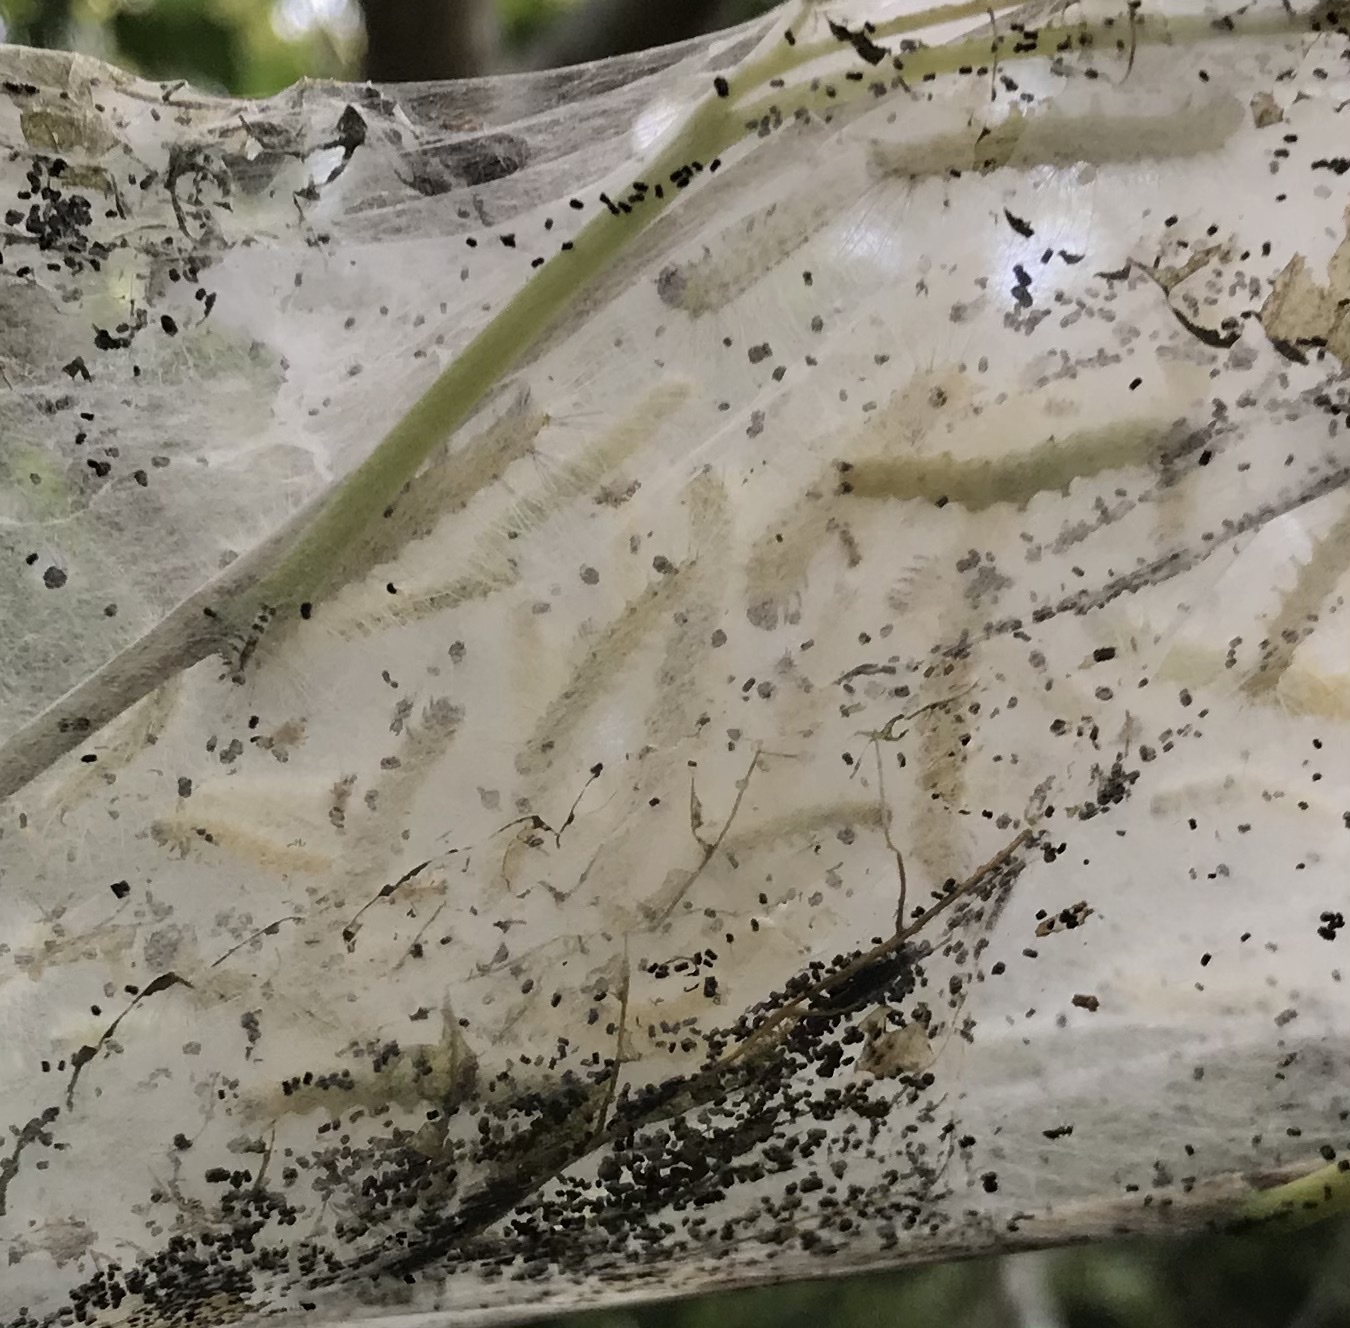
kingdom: Animalia
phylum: Arthropoda
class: Insecta
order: Lepidoptera
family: Erebidae
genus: Hyphantria
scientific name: Hyphantria cunea
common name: American white moth
